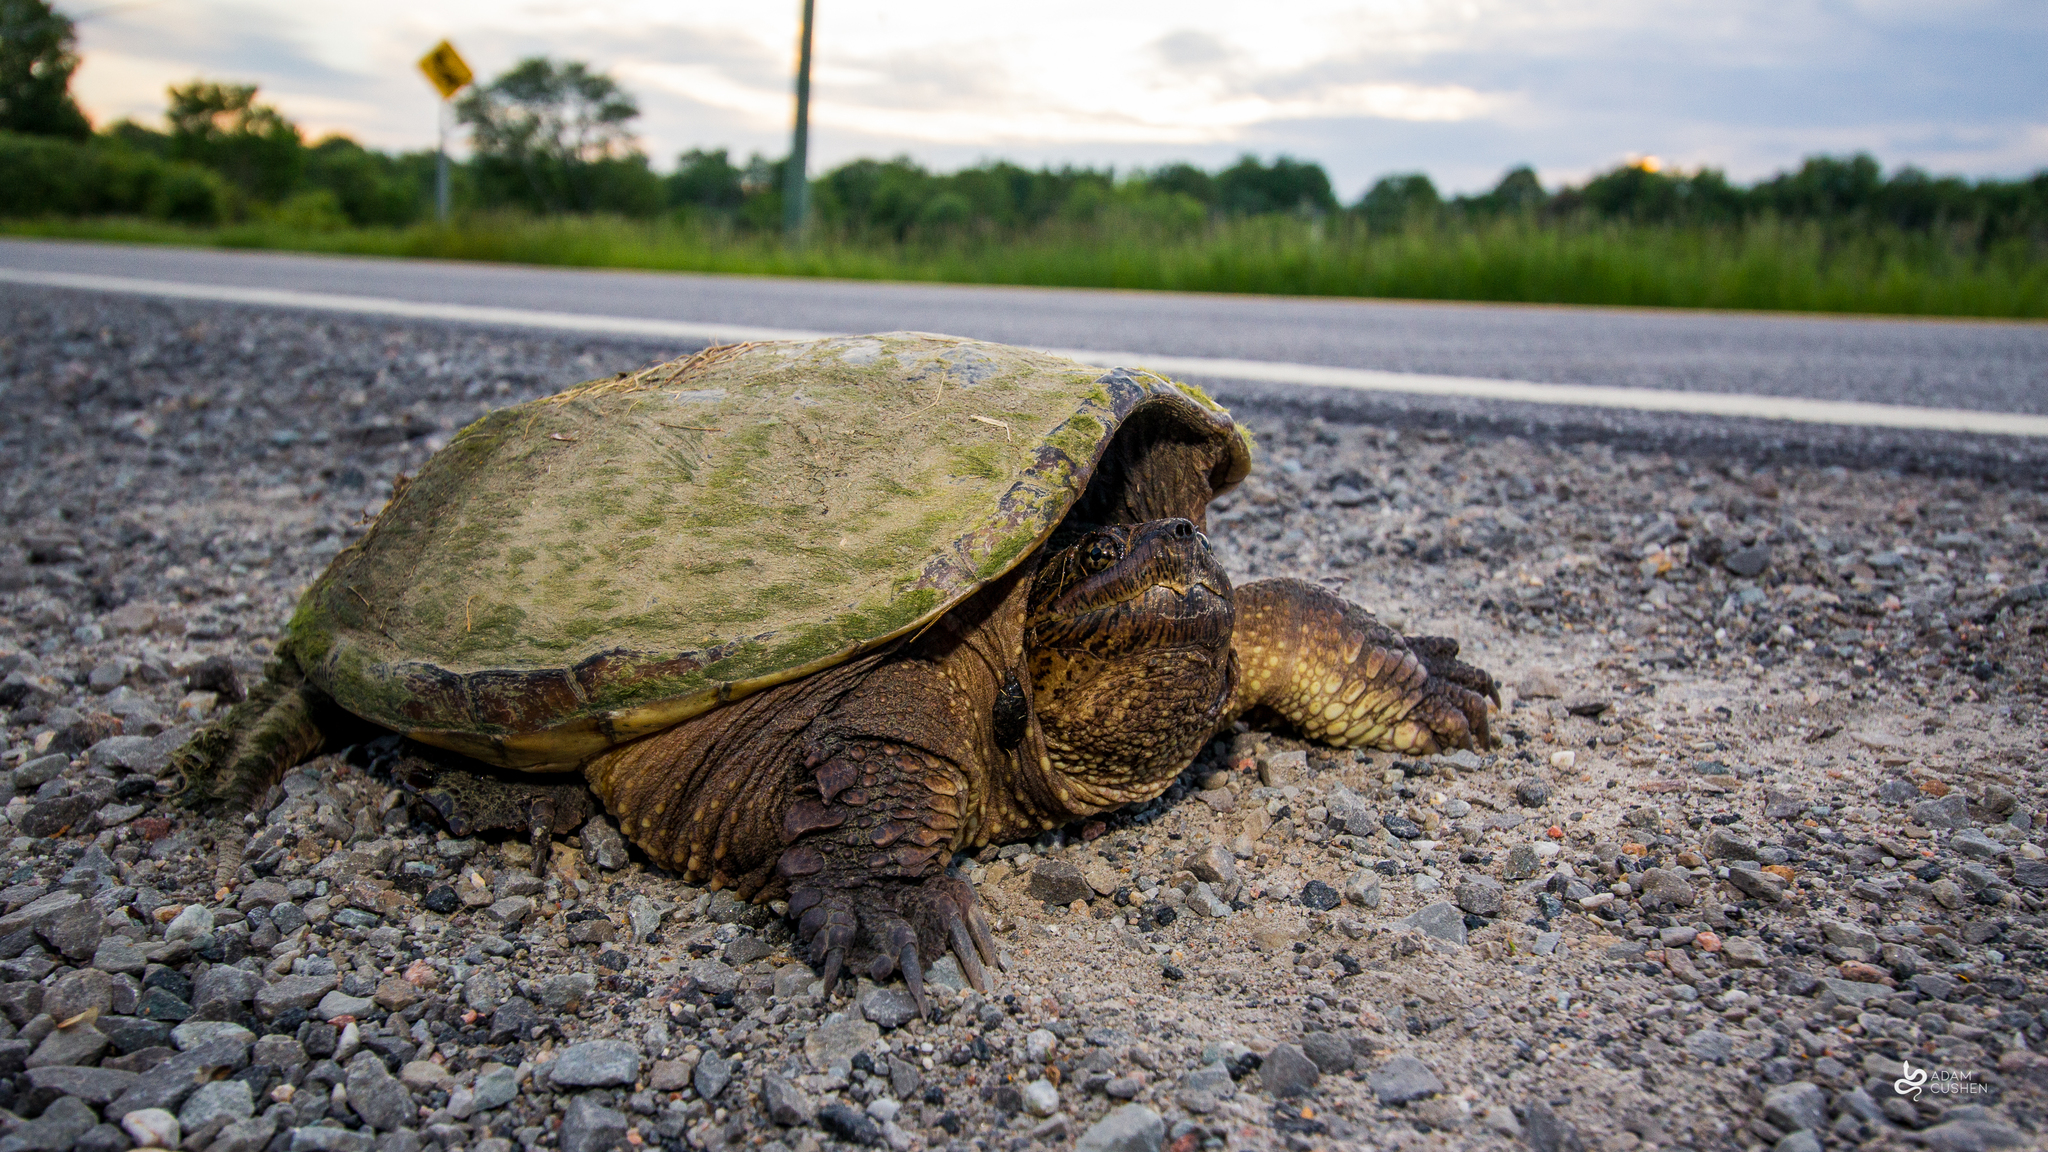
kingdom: Animalia
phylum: Chordata
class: Testudines
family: Chelydridae
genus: Chelydra
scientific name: Chelydra serpentina
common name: Common snapping turtle
